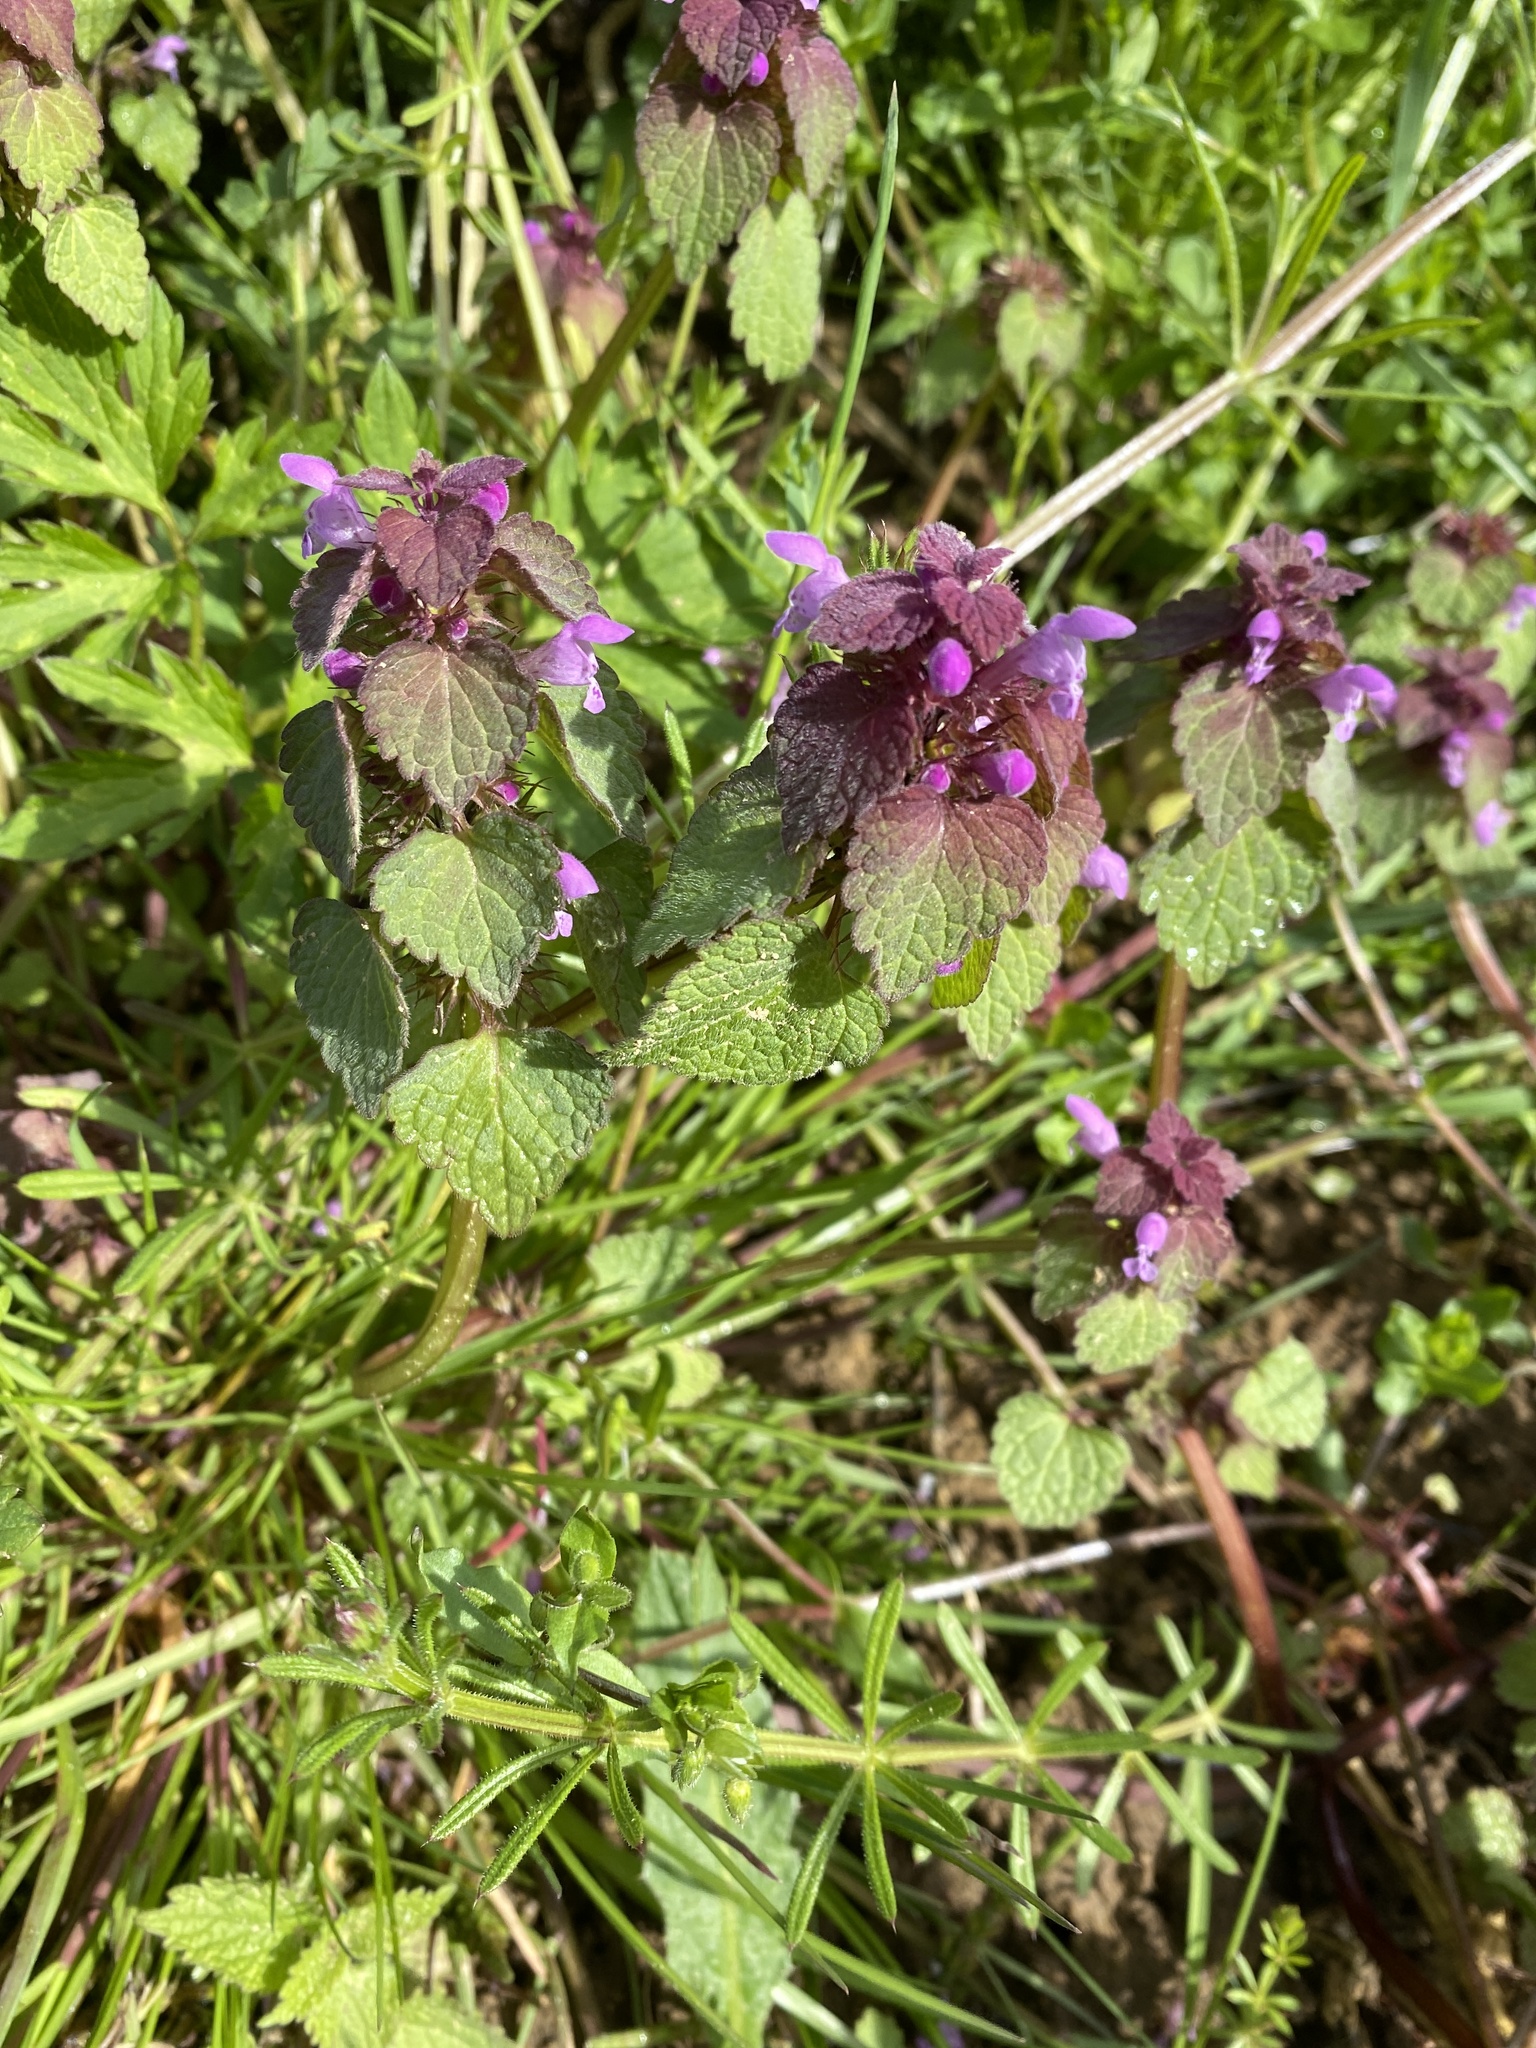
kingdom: Plantae
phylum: Tracheophyta
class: Magnoliopsida
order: Lamiales
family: Lamiaceae
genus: Lamium
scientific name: Lamium purpureum
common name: Red dead-nettle
